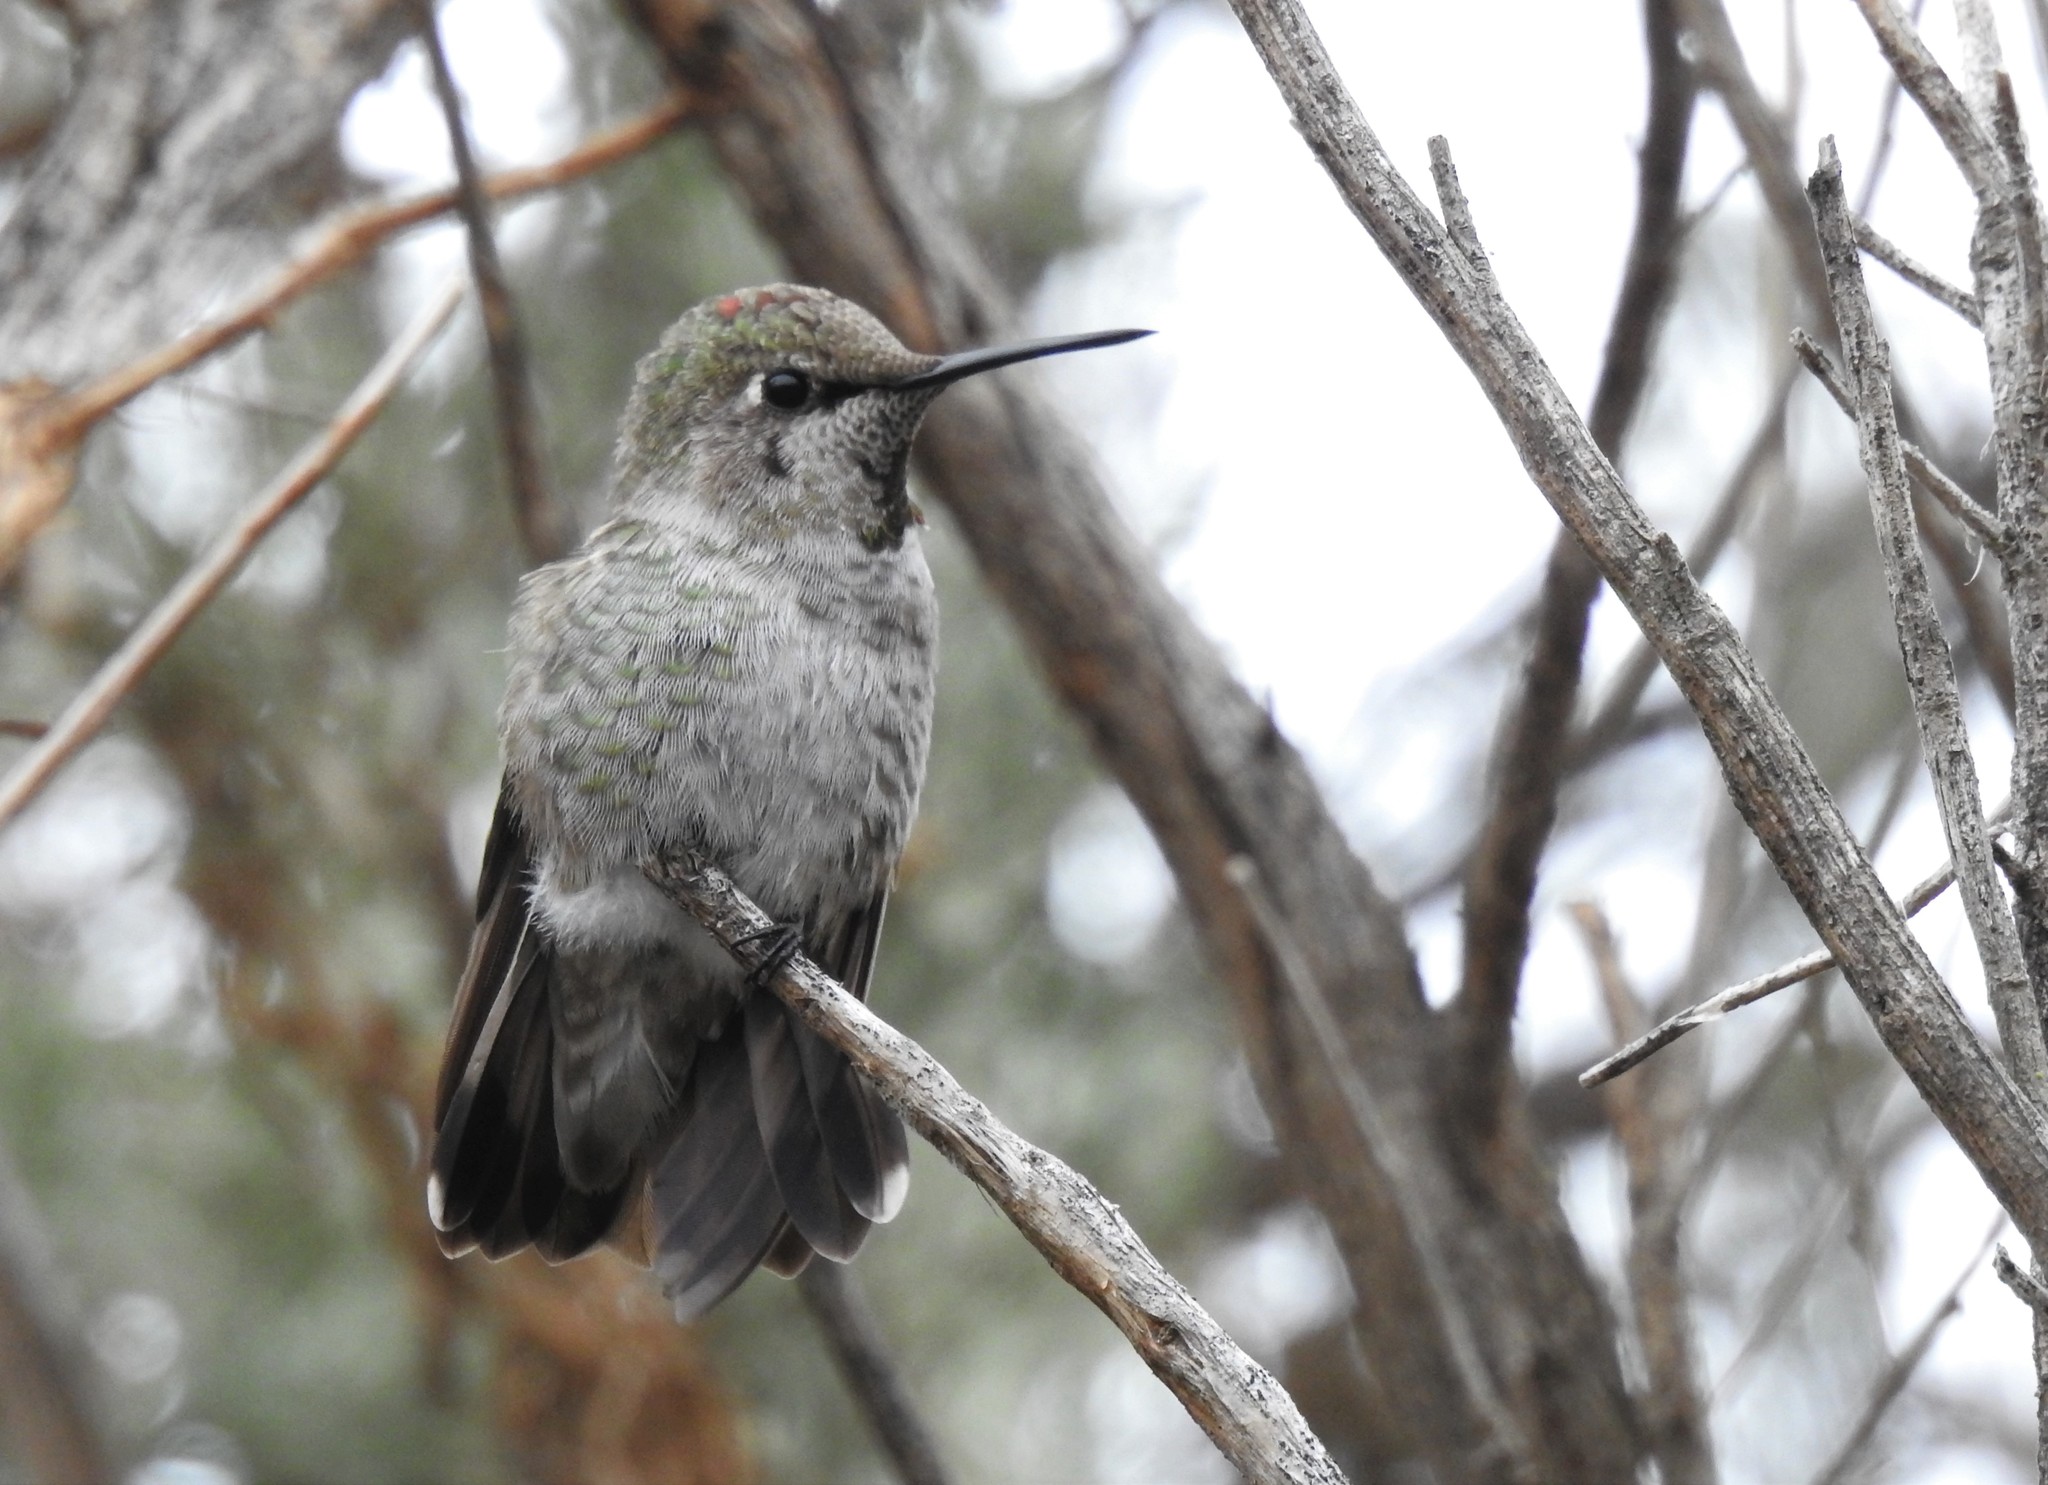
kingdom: Animalia
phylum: Chordata
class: Aves
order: Apodiformes
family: Trochilidae
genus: Calypte
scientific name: Calypte anna
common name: Anna's hummingbird
